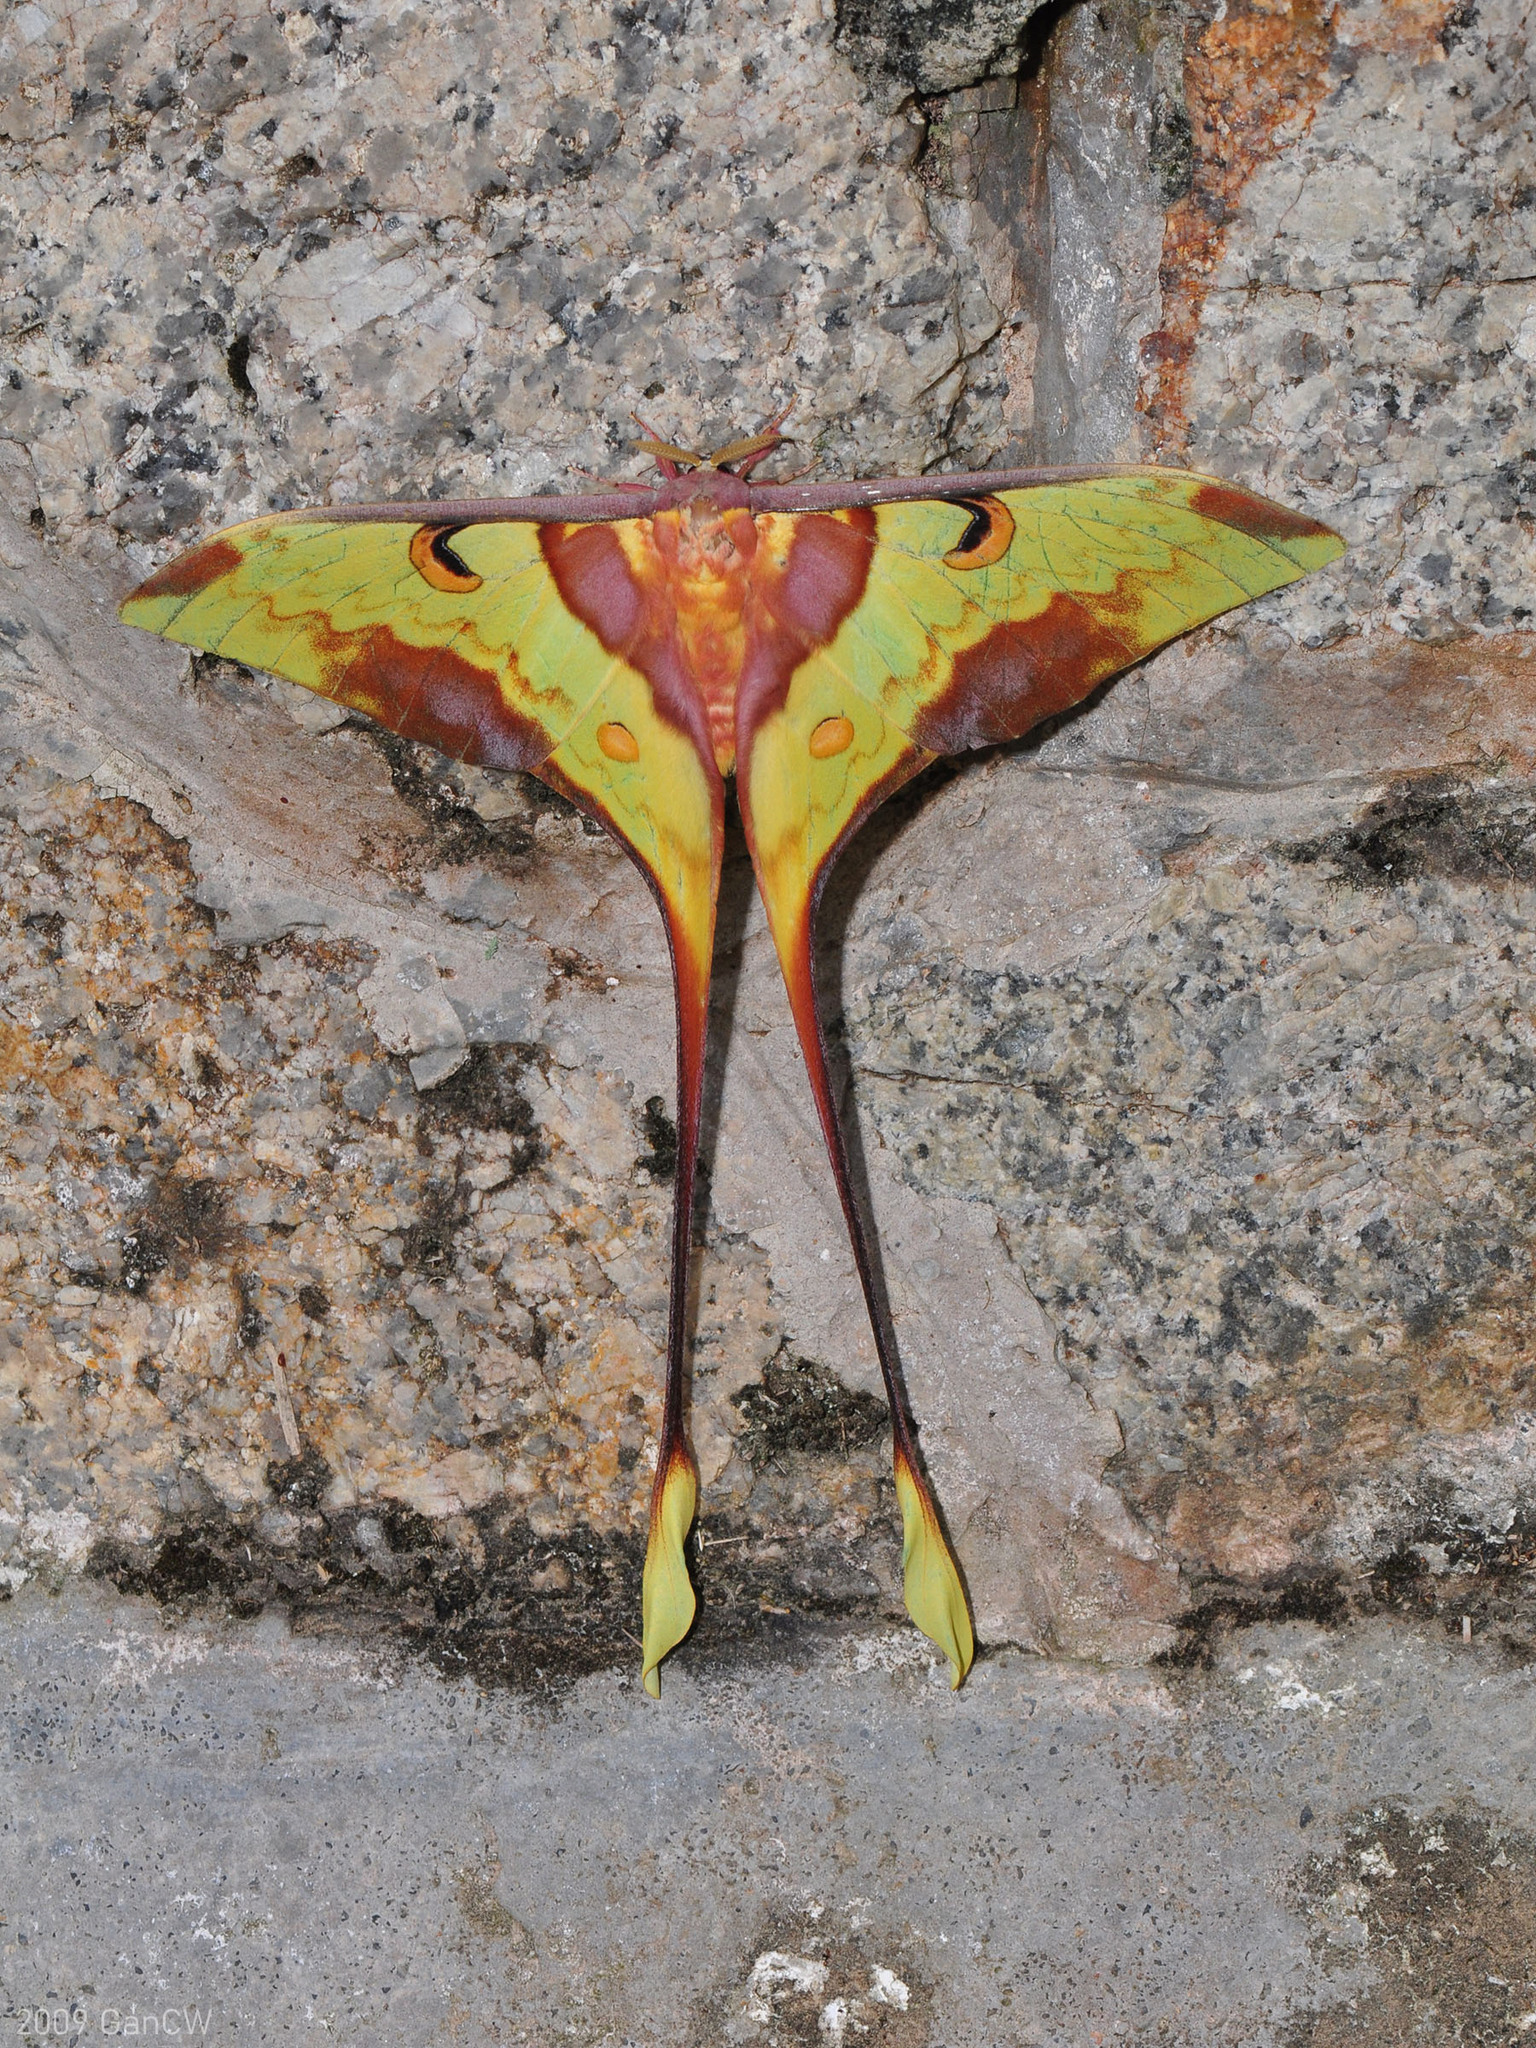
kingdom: Animalia
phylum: Arthropoda
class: Insecta
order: Lepidoptera
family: Saturniidae
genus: Actias
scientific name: Actias maenas
